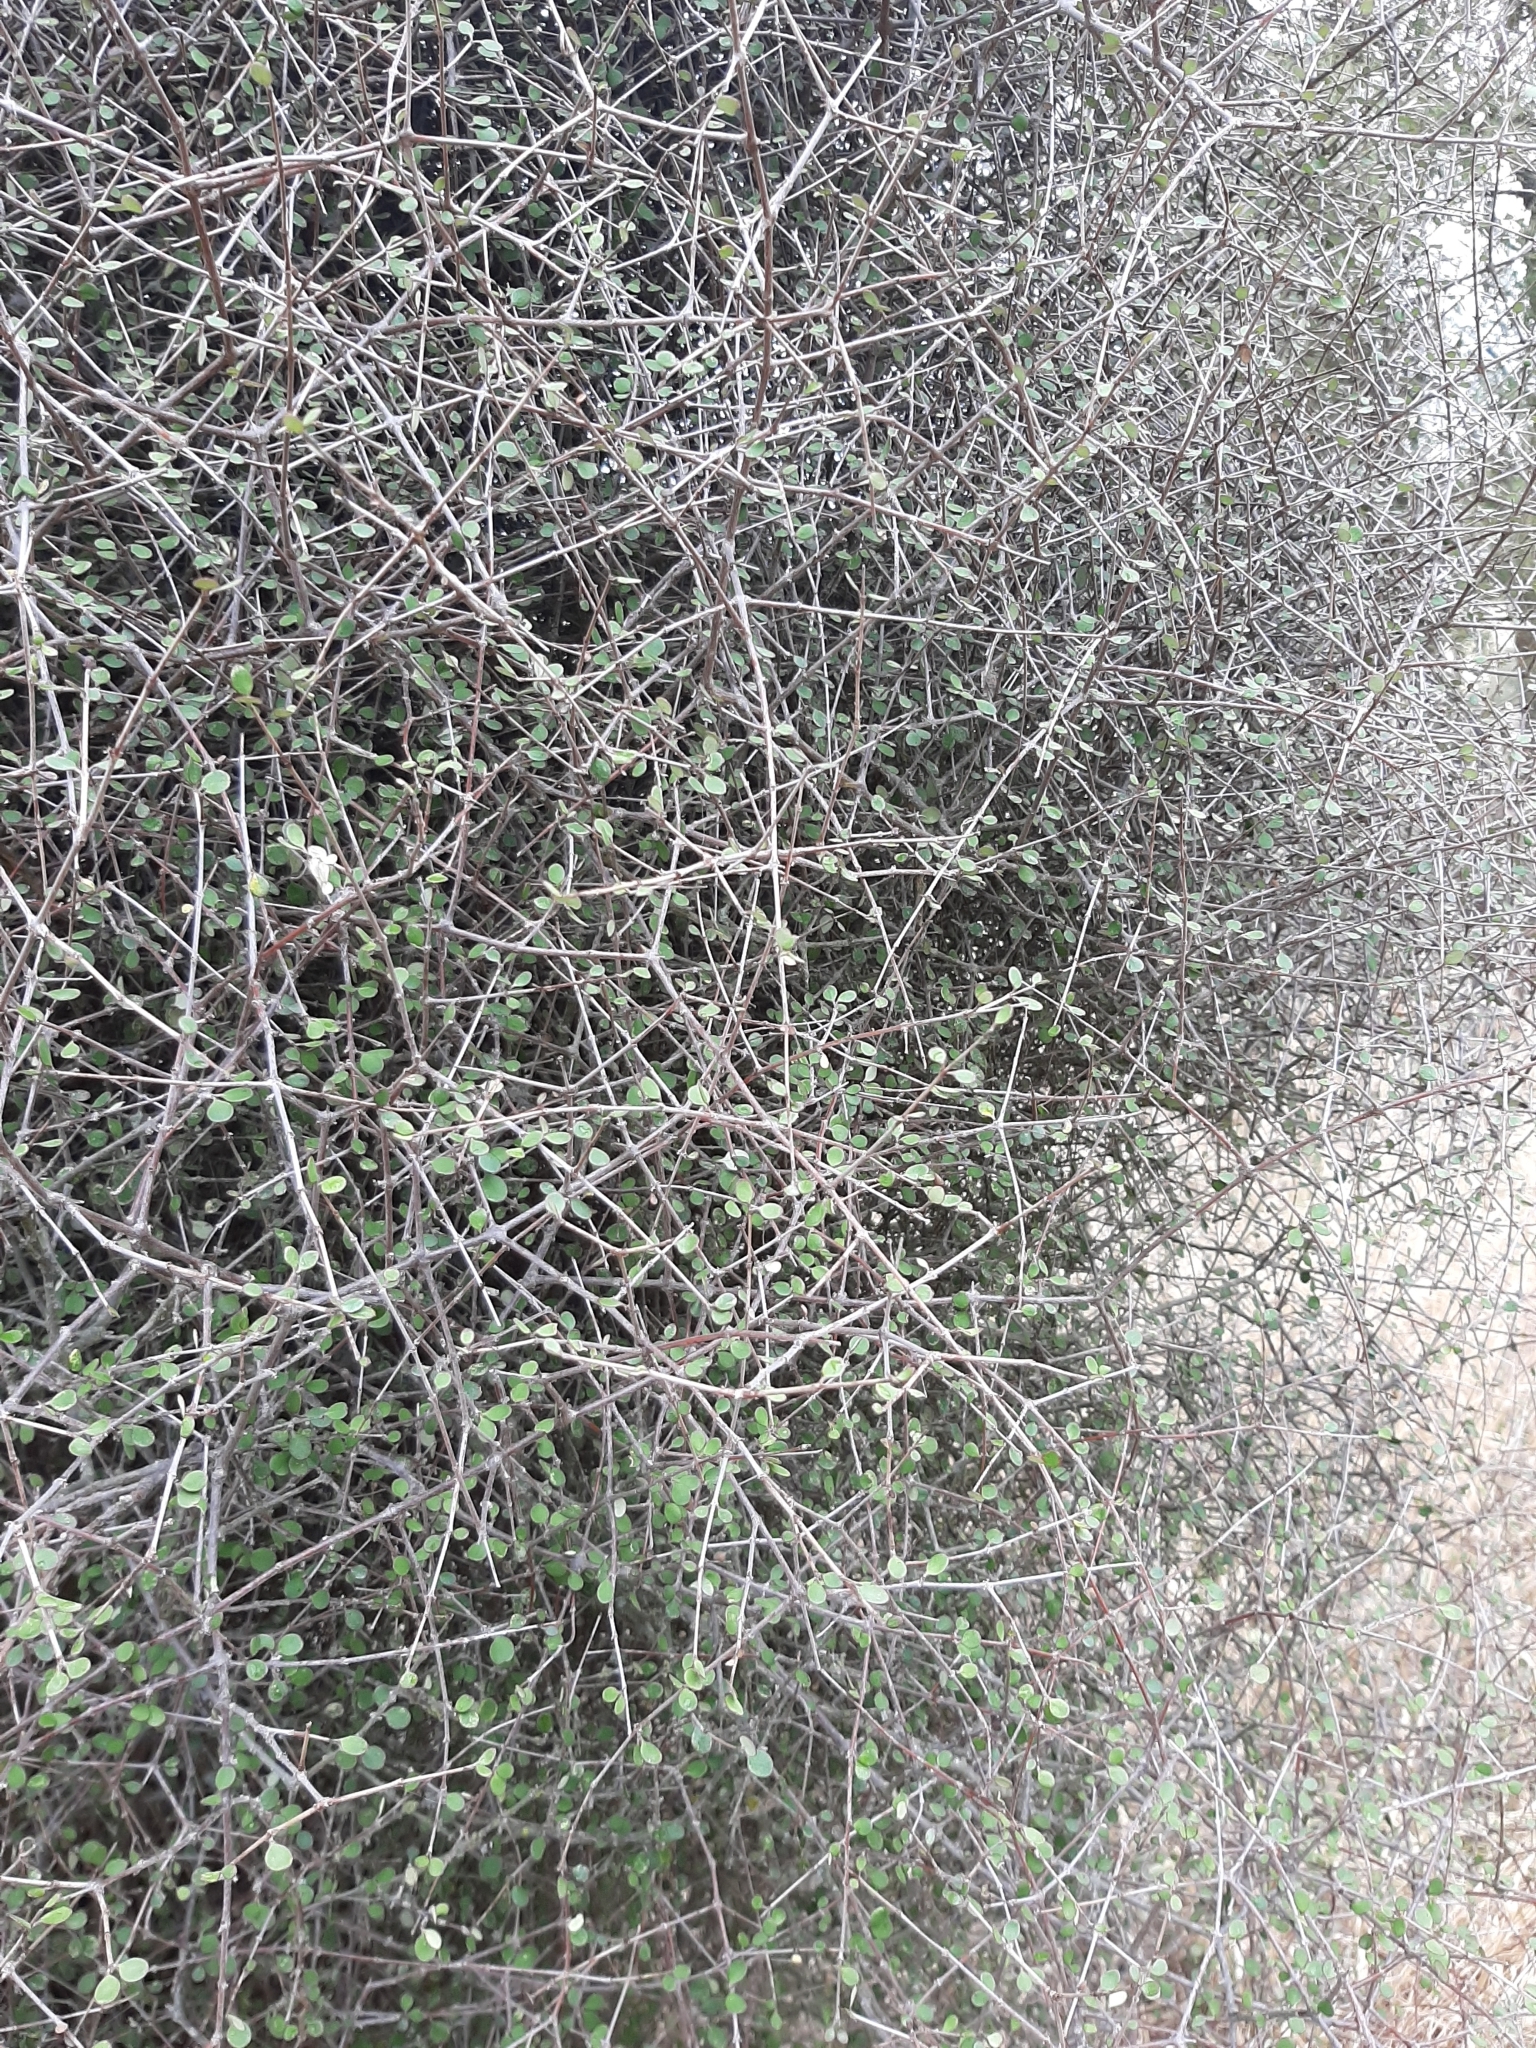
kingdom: Plantae
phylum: Tracheophyta
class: Magnoliopsida
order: Gentianales
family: Rubiaceae
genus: Coprosma
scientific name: Coprosma crassifolia
